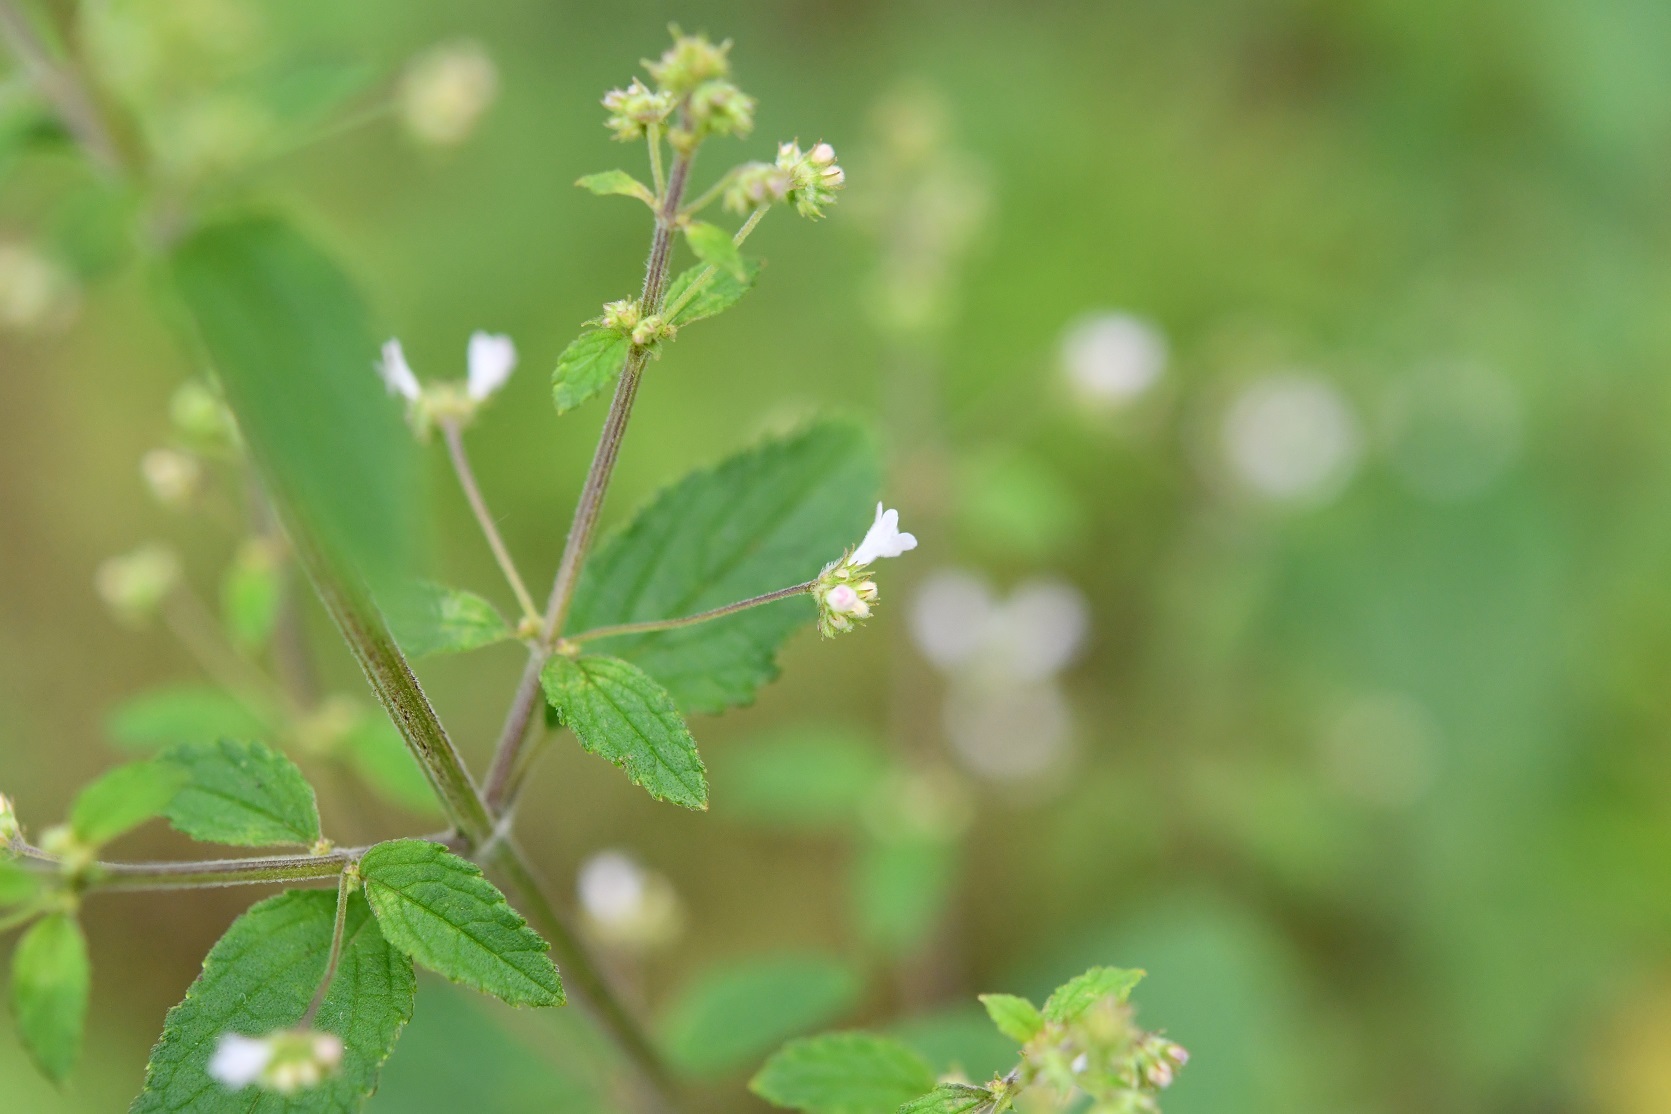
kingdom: Plantae
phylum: Tracheophyta
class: Magnoliopsida
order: Lamiales
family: Lamiaceae
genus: Mesosphaerum
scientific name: Mesosphaerum urticoides
